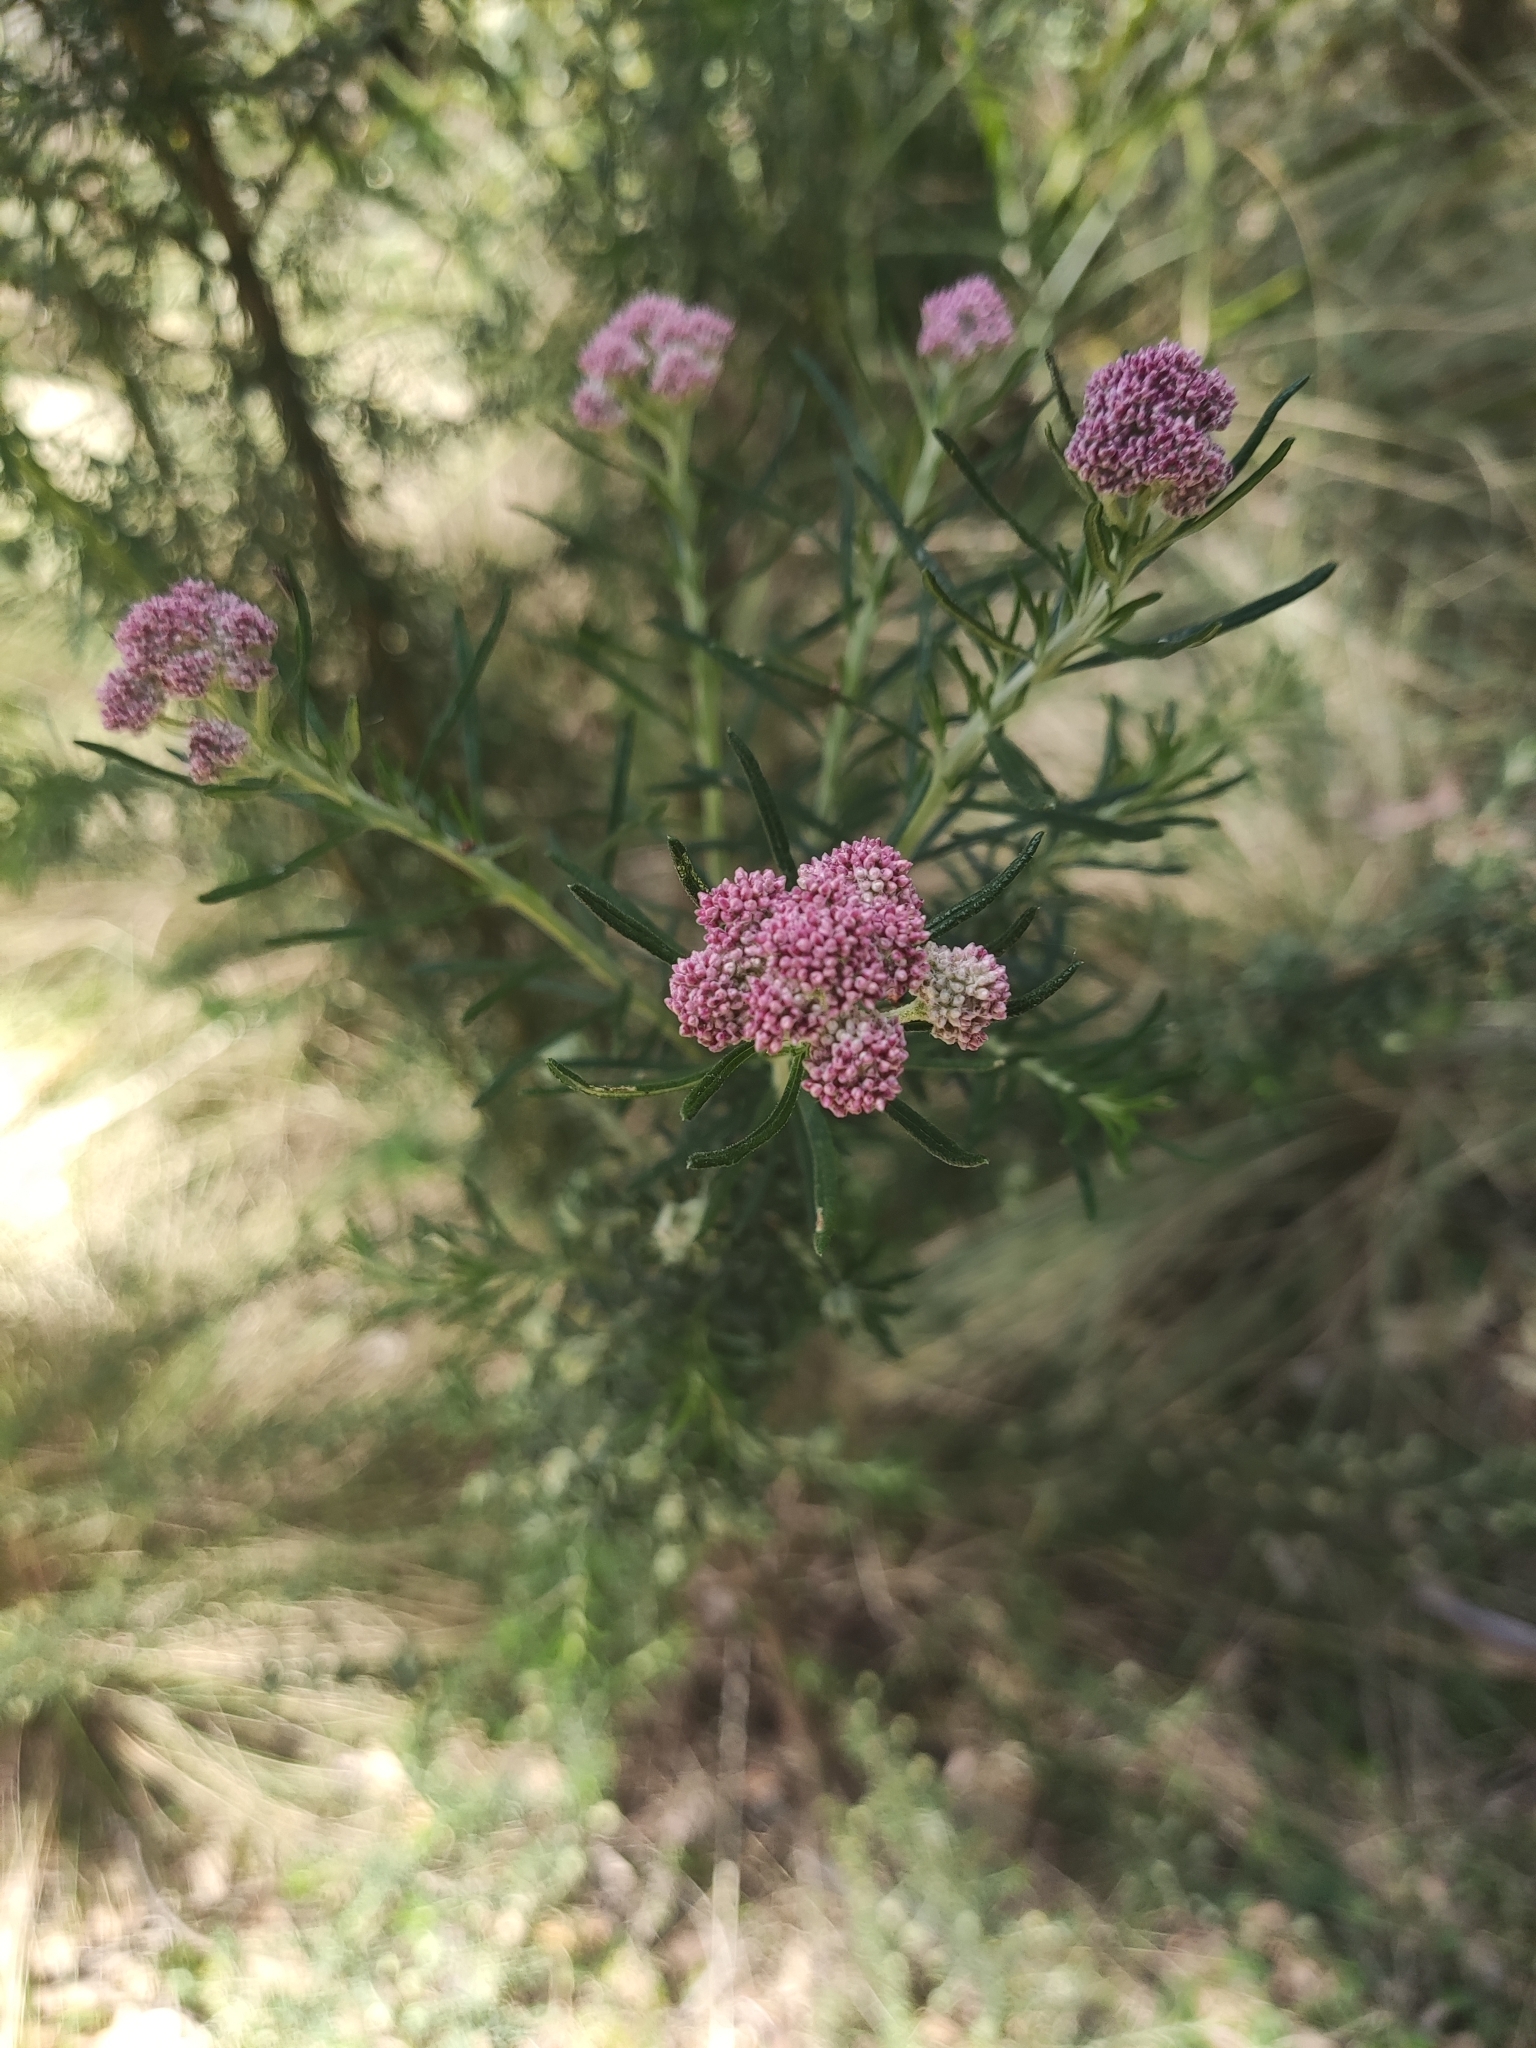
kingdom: Plantae
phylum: Tracheophyta
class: Magnoliopsida
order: Asterales
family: Asteraceae
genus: Cassinia
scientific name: Cassinia aculeata
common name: Australian tauhinu
